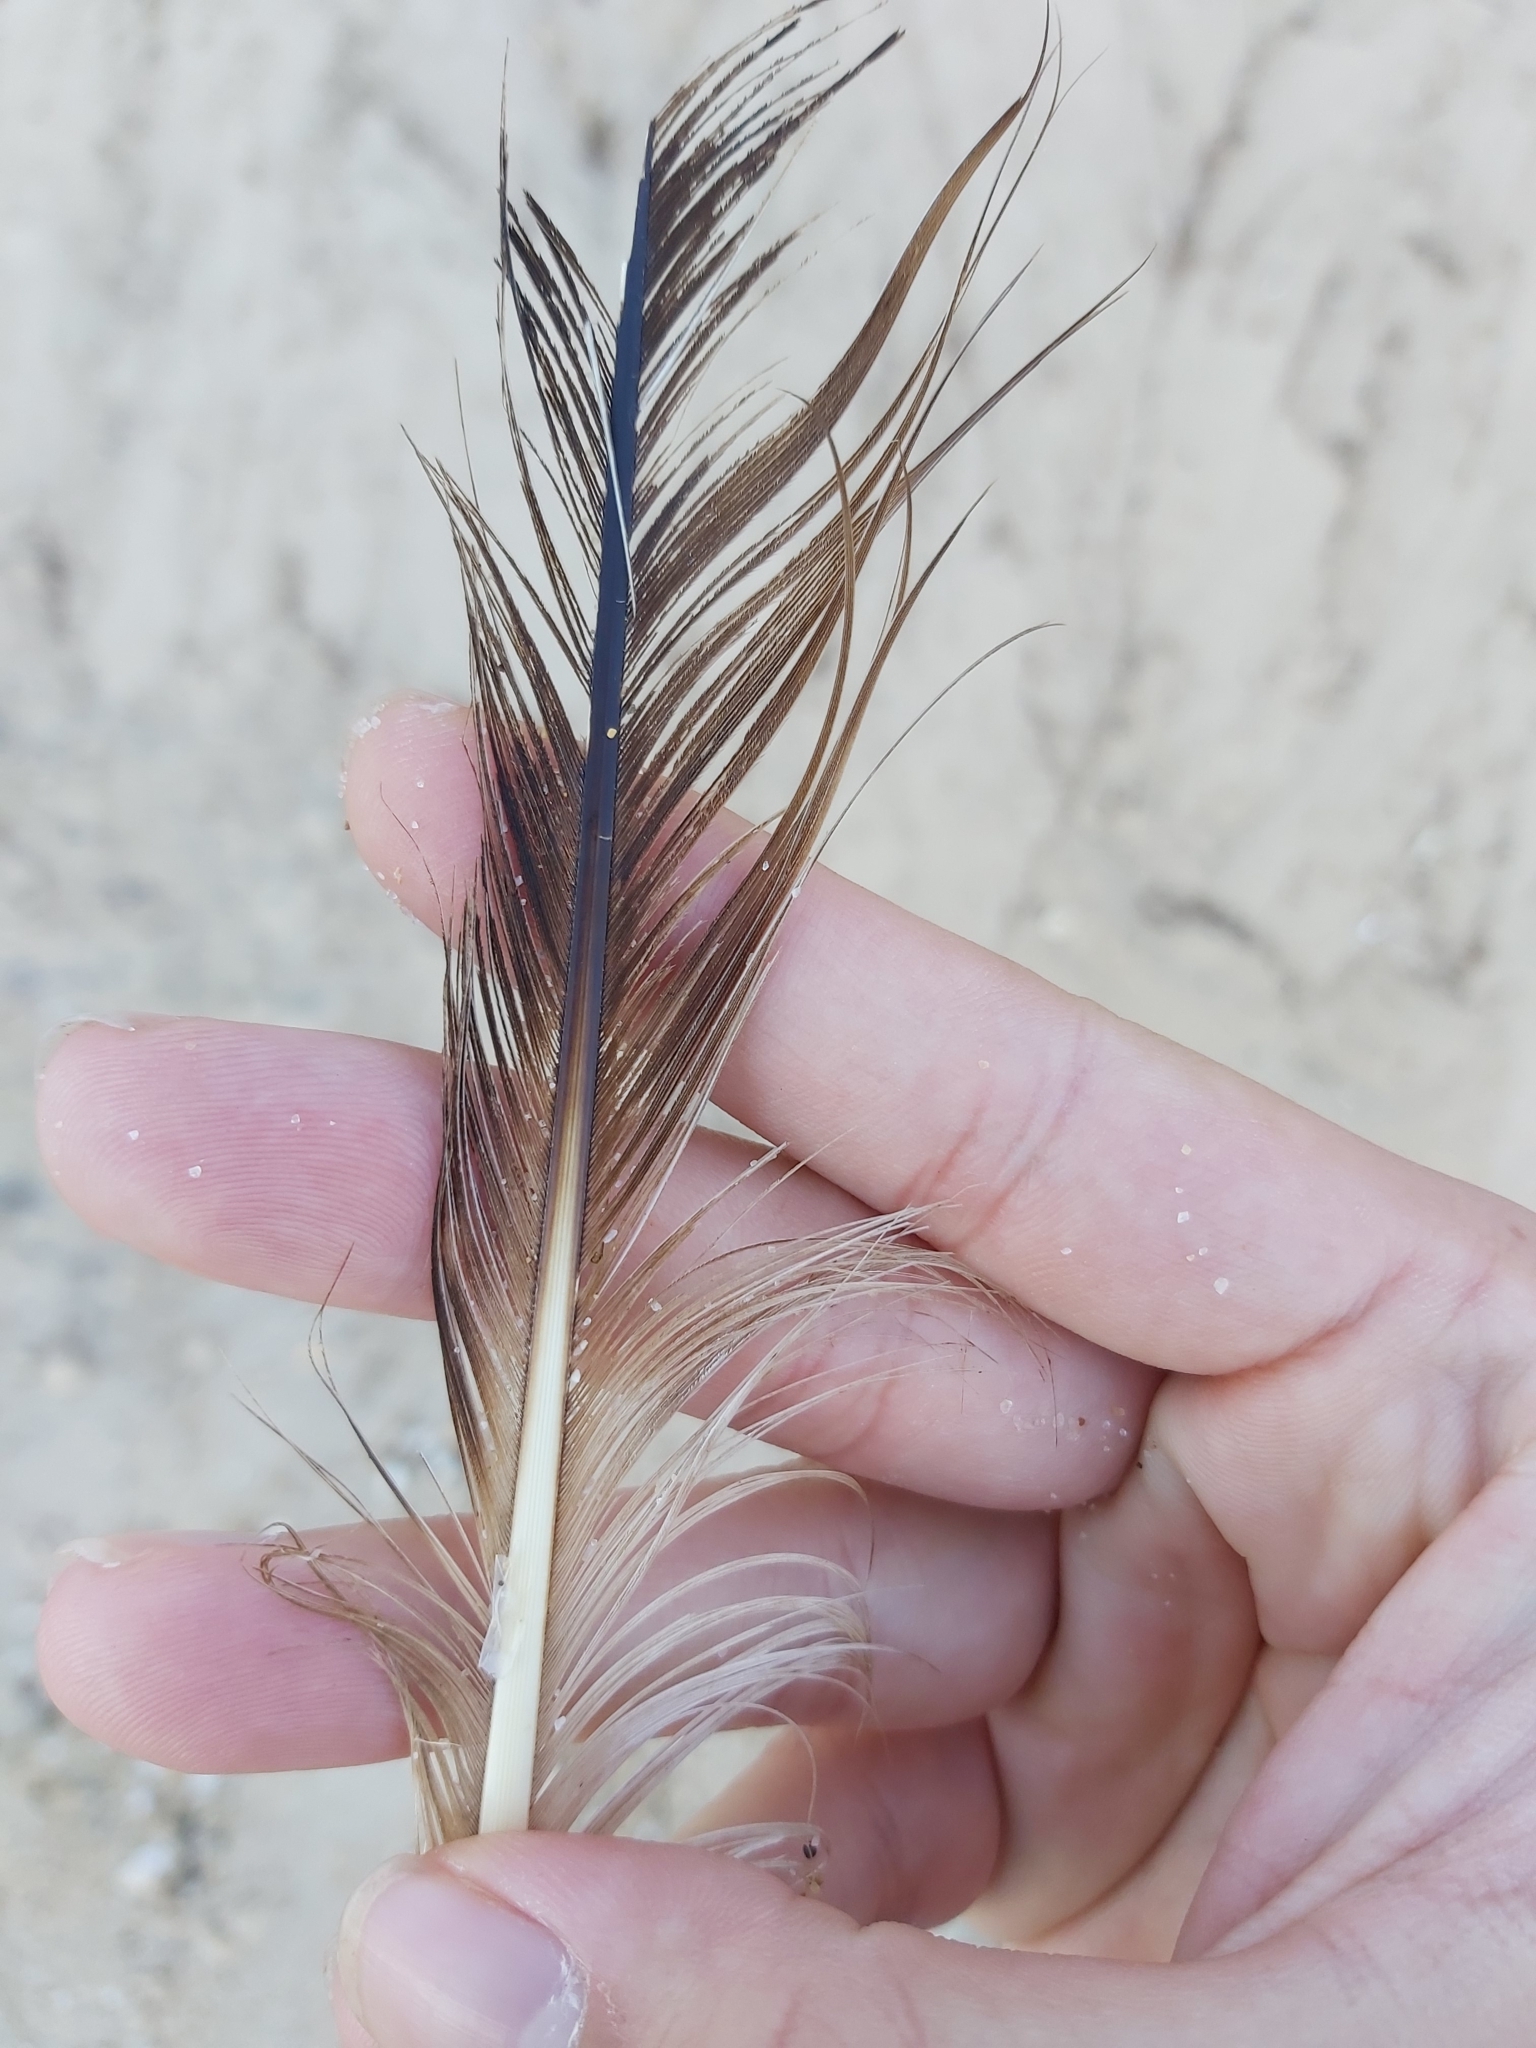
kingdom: Animalia
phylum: Chordata
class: Aves
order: Pelecaniformes
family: Pelecanidae
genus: Pelecanus
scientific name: Pelecanus conspicillatus
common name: Australian pelican
